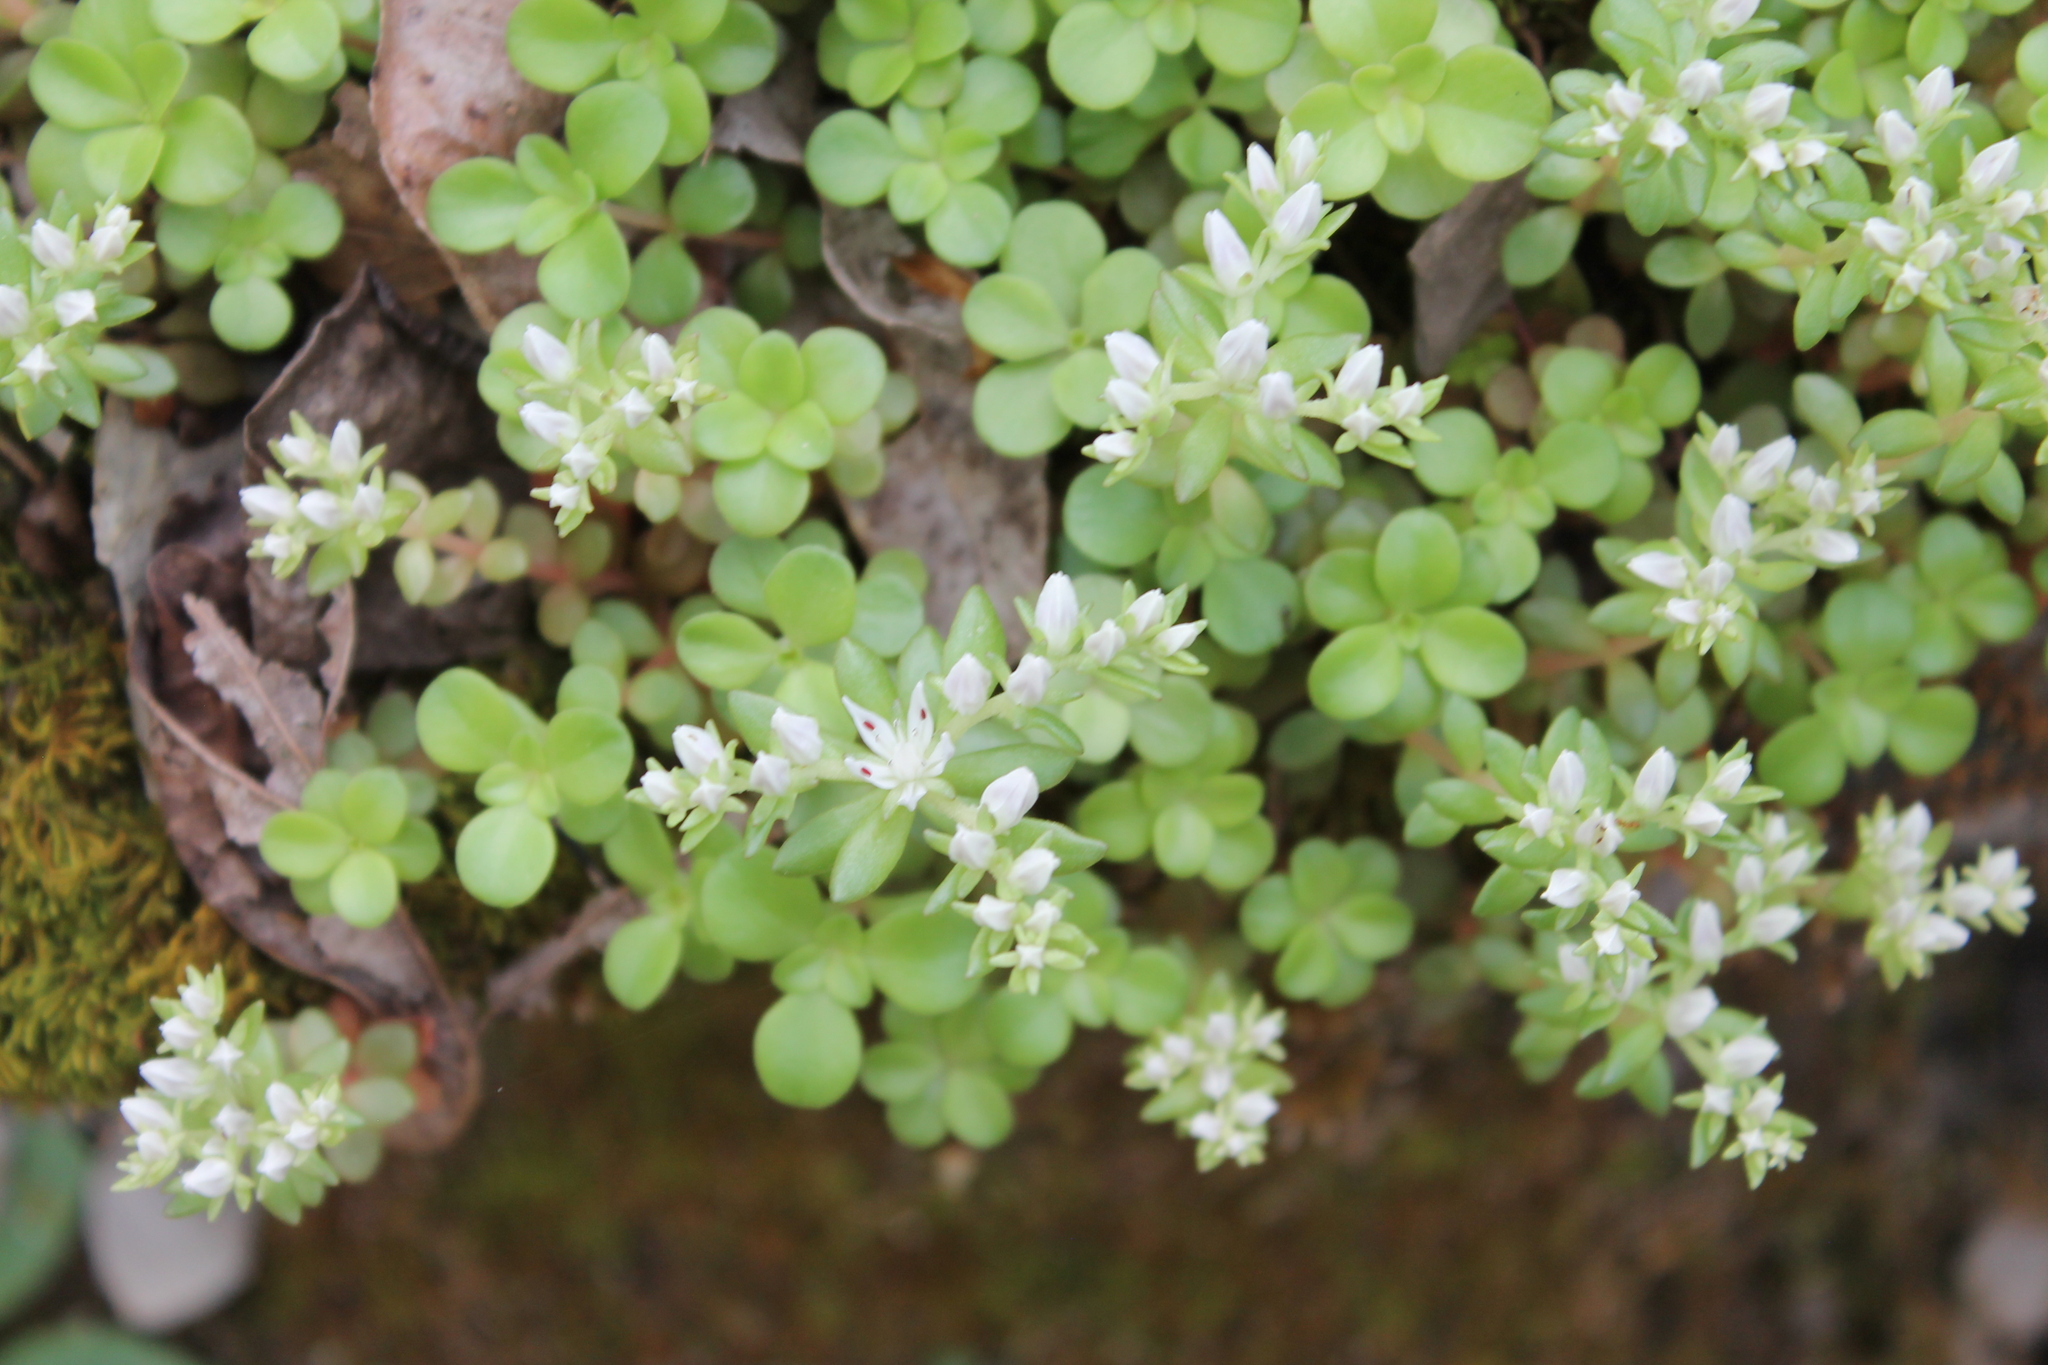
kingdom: Plantae
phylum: Tracheophyta
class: Magnoliopsida
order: Saxifragales
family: Crassulaceae
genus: Sedum
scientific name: Sedum ternatum
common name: Wild stonecrop
